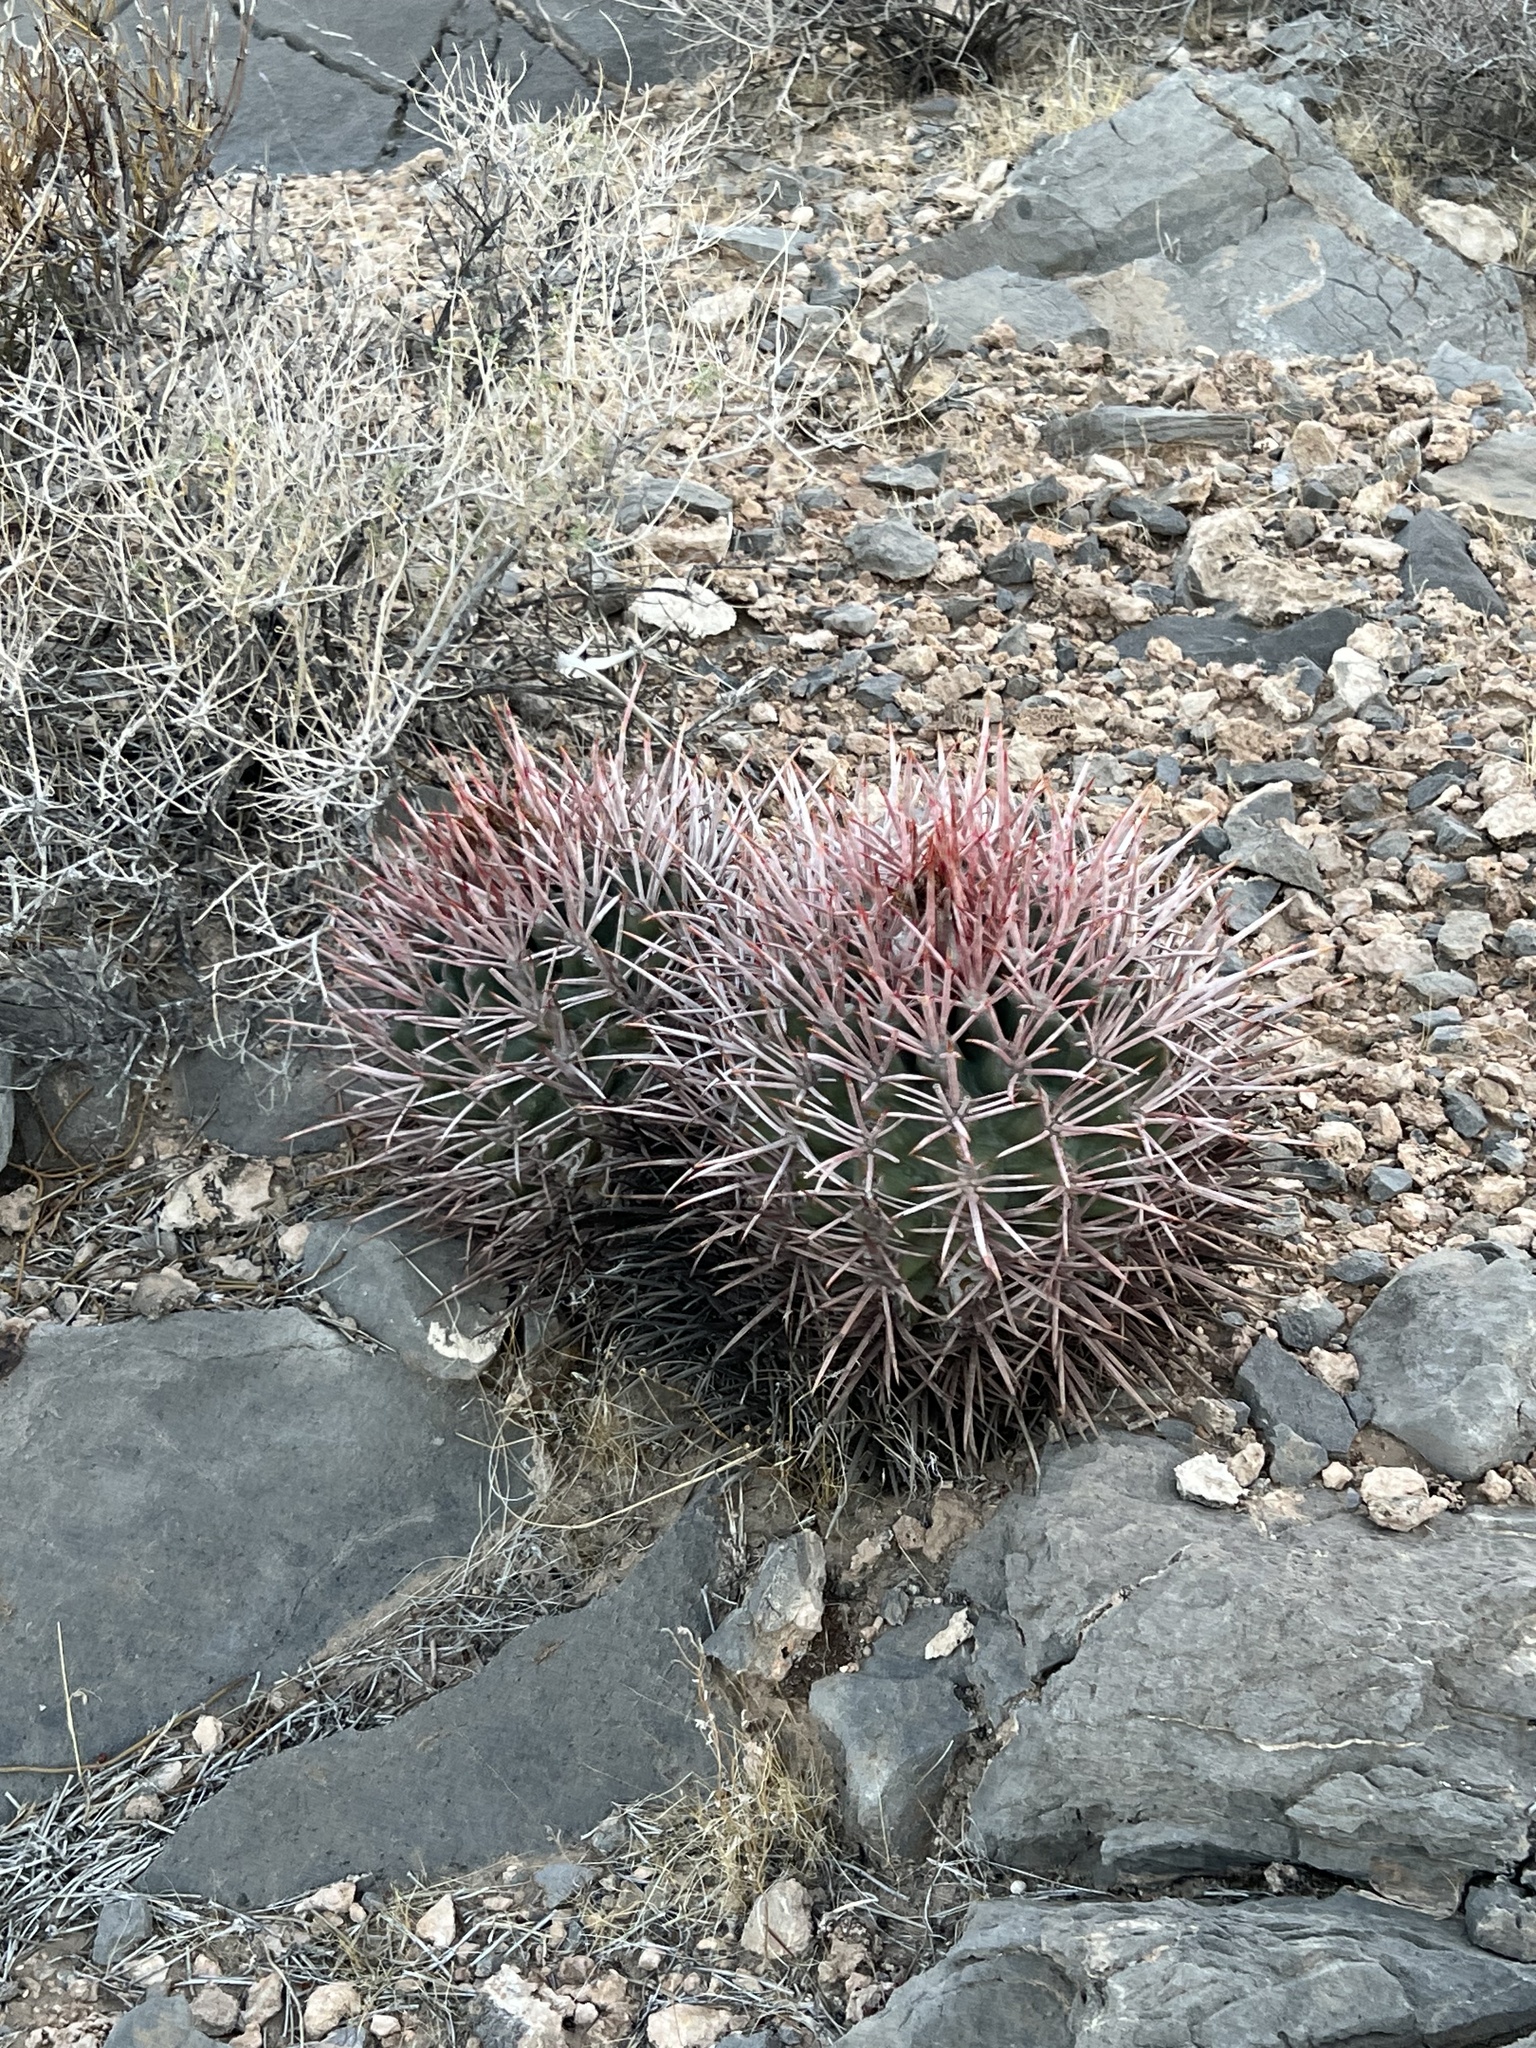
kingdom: Plantae
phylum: Tracheophyta
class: Magnoliopsida
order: Caryophyllales
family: Cactaceae
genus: Echinocactus
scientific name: Echinocactus polycephalus
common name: Cottontop cactus
